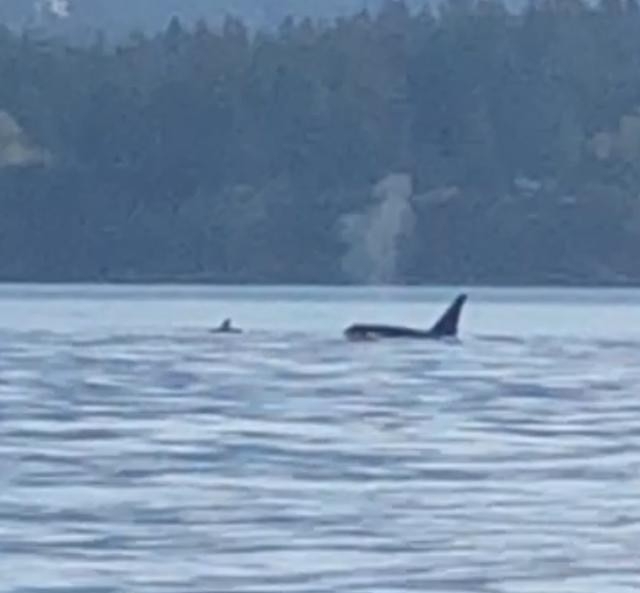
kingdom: Animalia
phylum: Chordata
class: Mammalia
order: Cetacea
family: Delphinidae
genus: Orcinus
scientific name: Orcinus orca
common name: Killer whale
